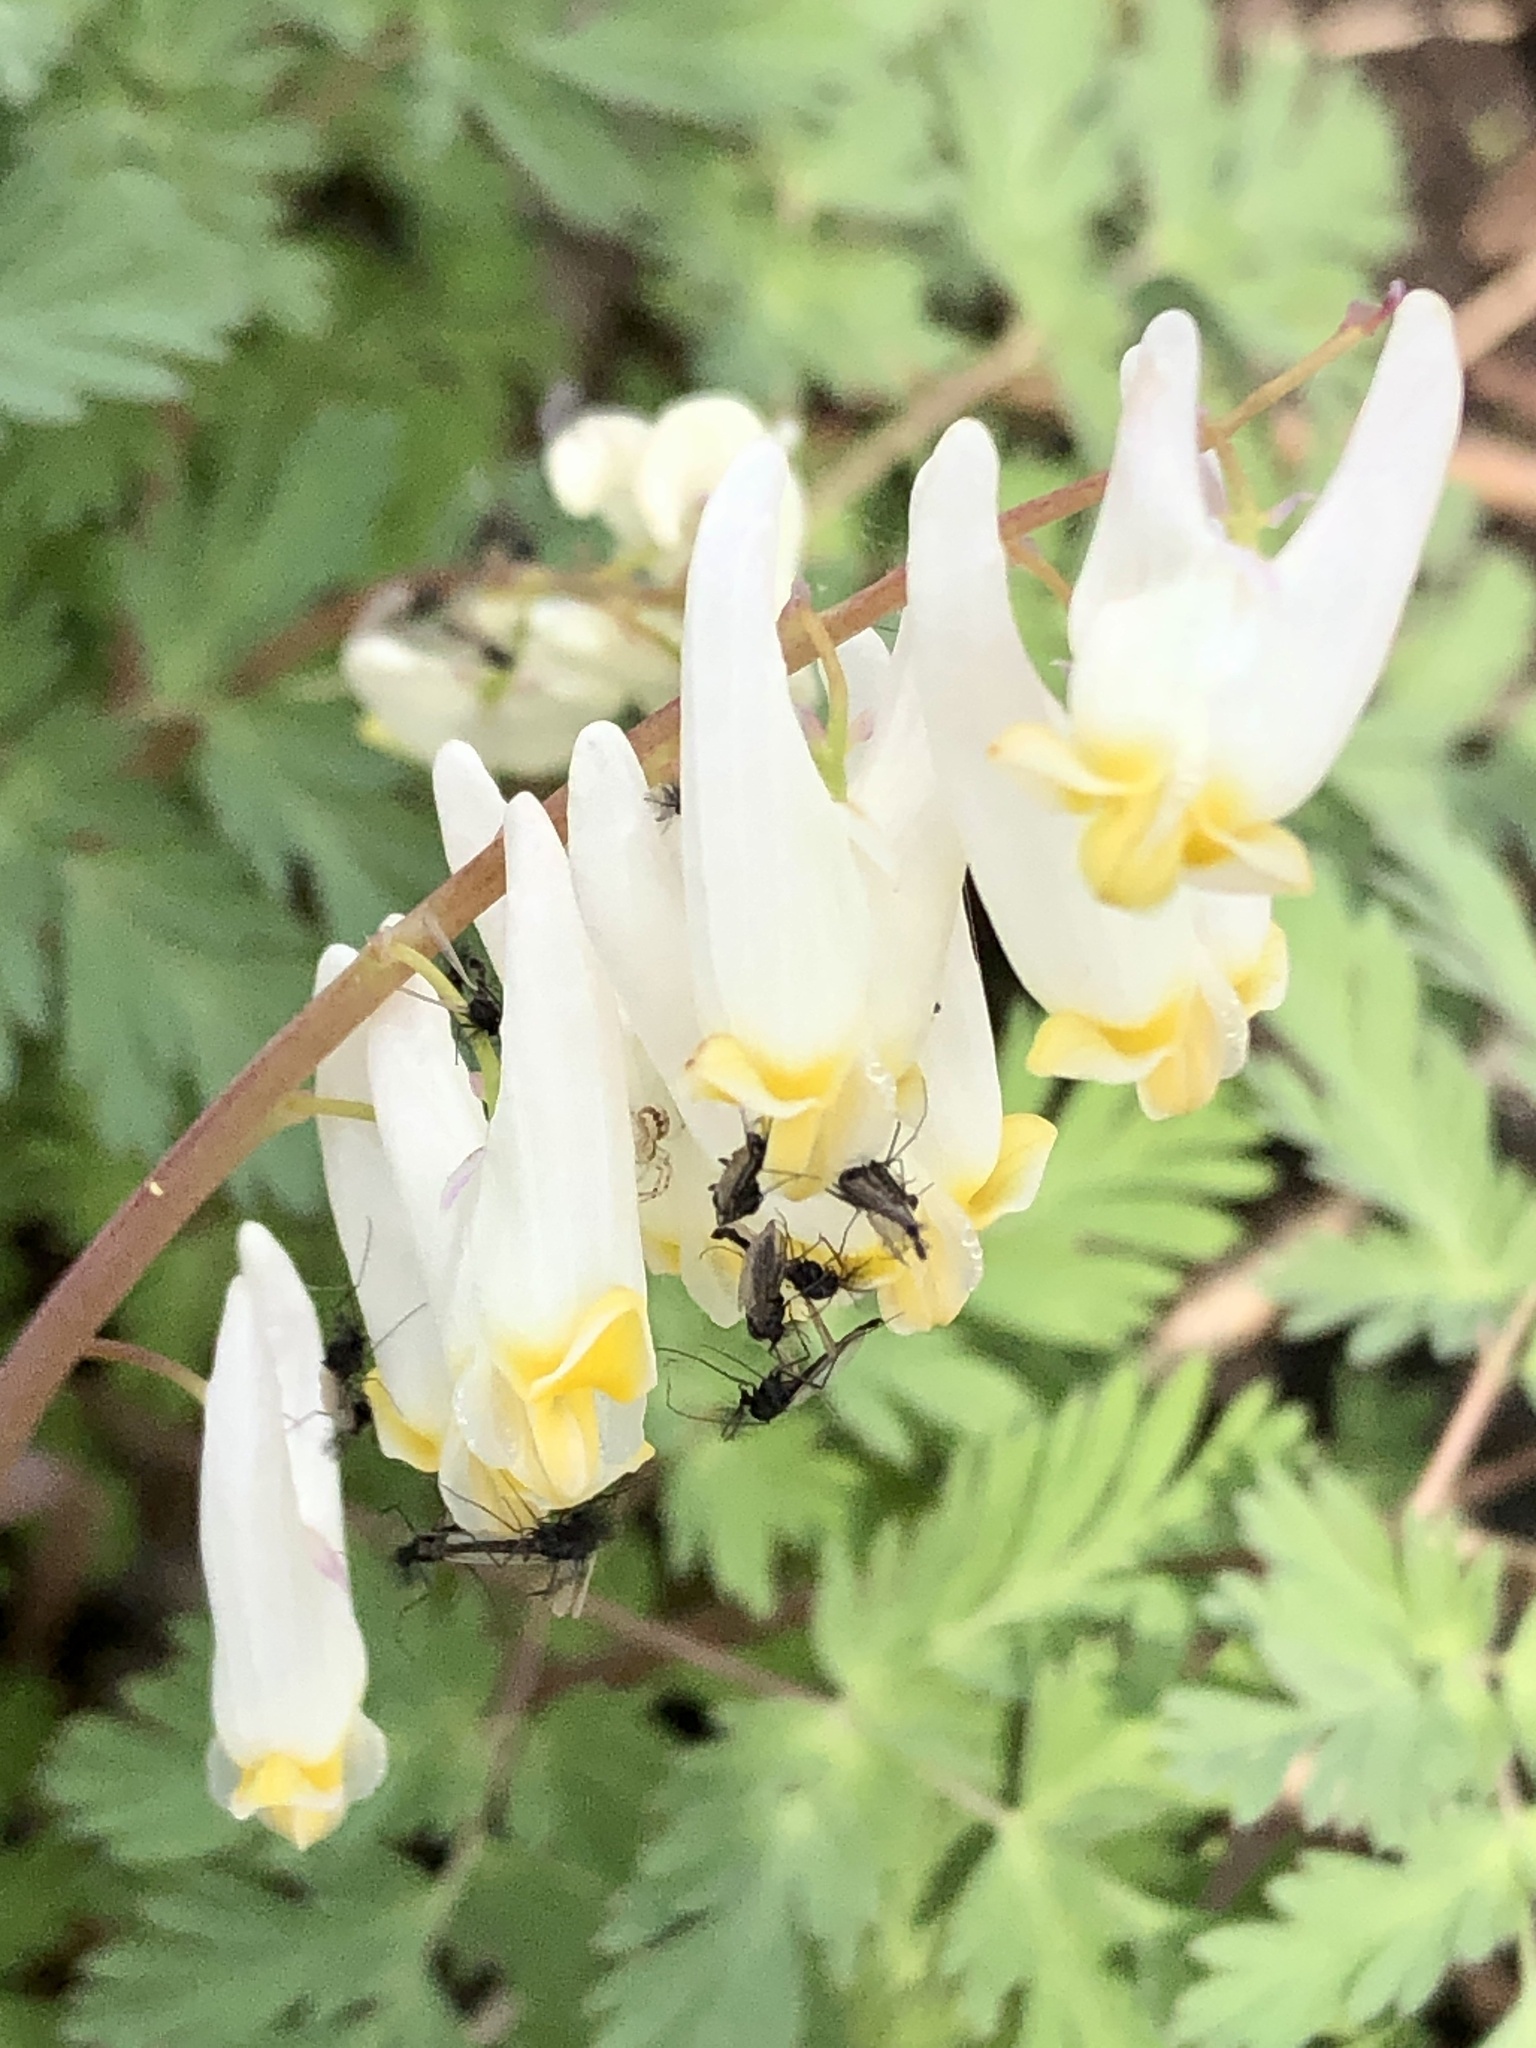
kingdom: Plantae
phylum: Tracheophyta
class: Magnoliopsida
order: Ranunculales
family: Papaveraceae
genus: Dicentra
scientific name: Dicentra cucullaria
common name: Dutchman's breeches
